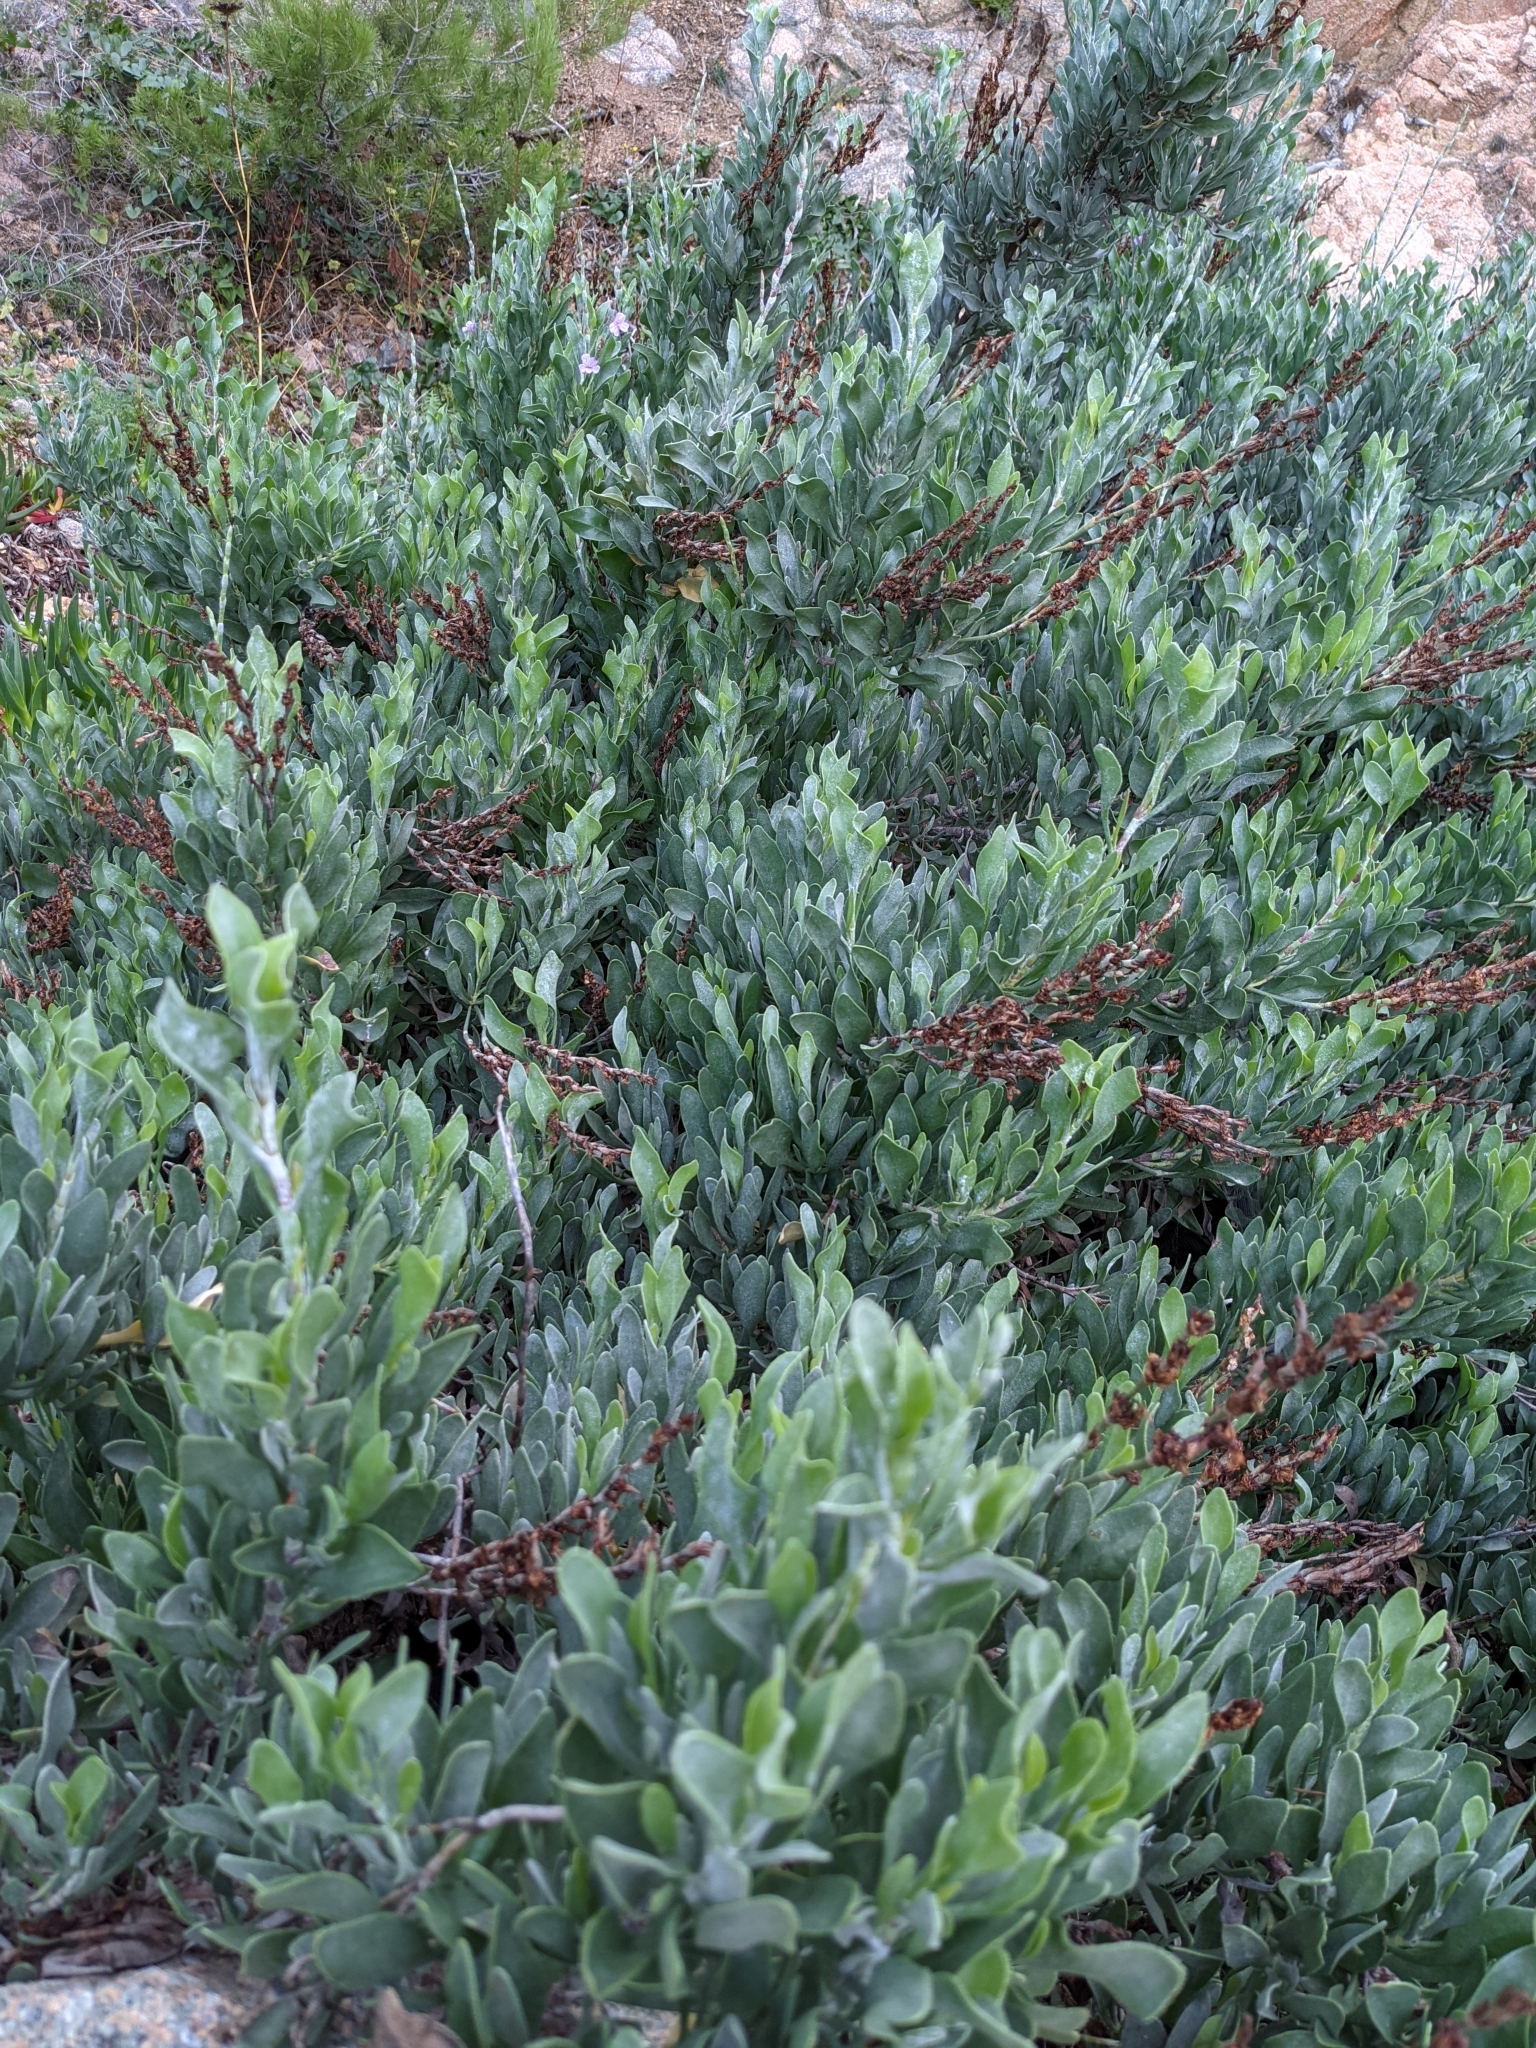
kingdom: Plantae
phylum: Tracheophyta
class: Magnoliopsida
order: Caryophyllales
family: Plumbaginaceae
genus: Limoniastrum
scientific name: Limoniastrum monopetalum
